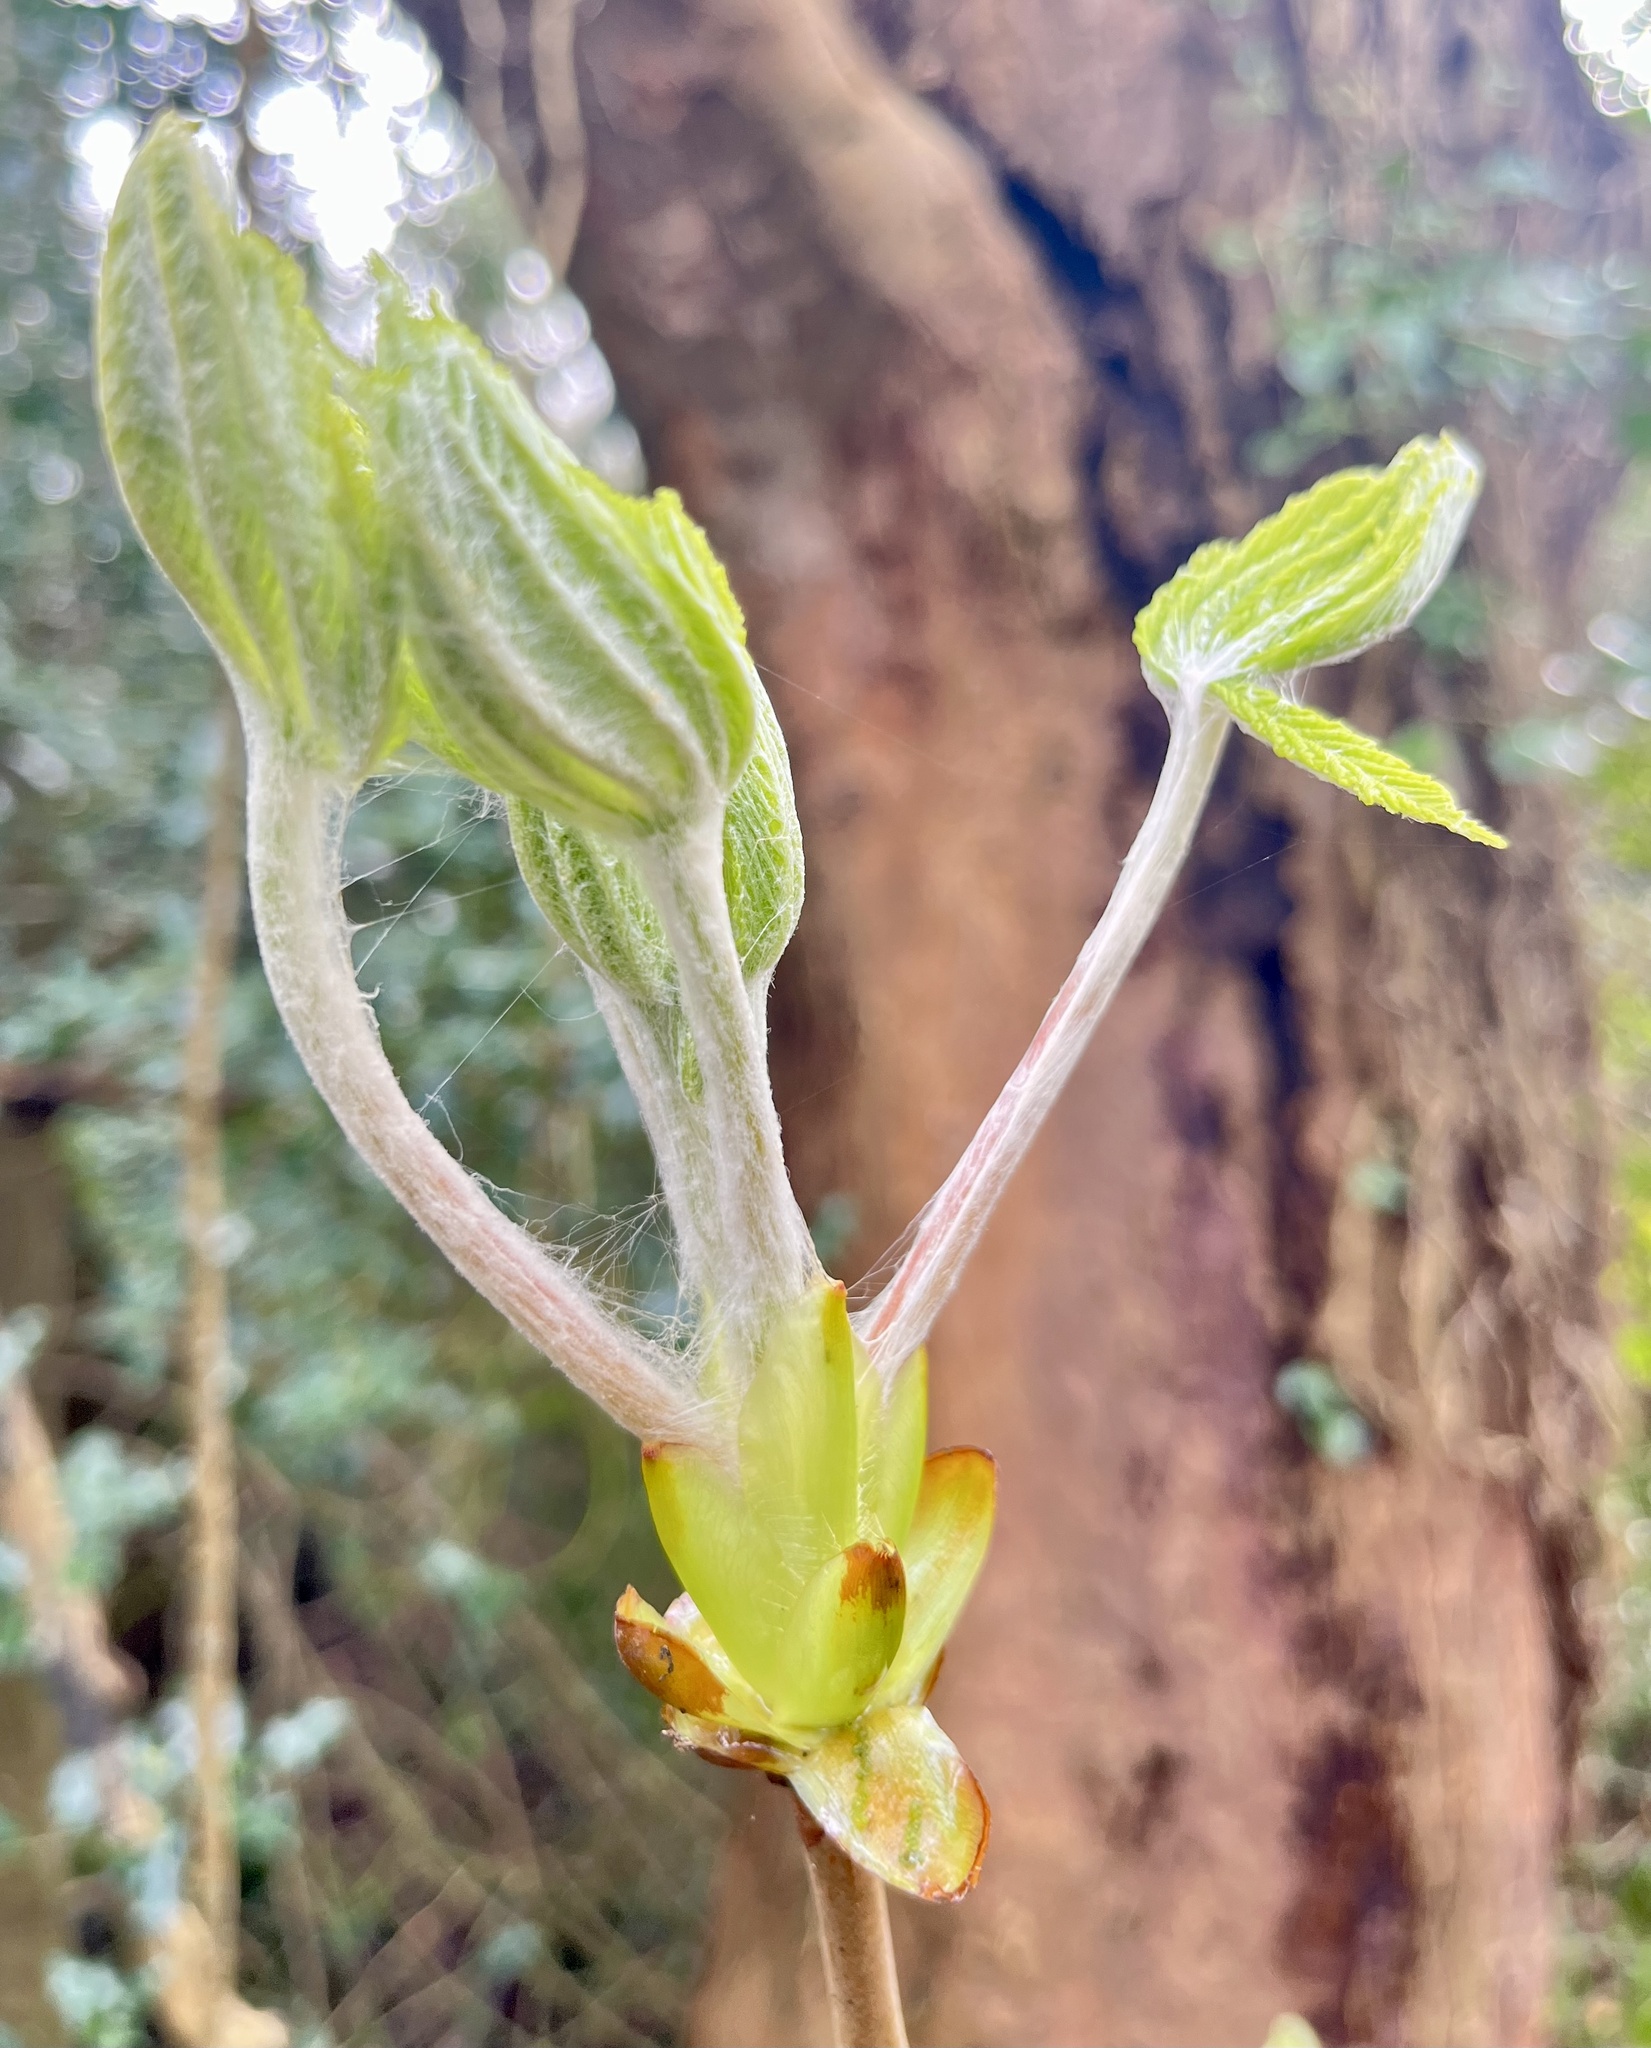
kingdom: Plantae
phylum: Tracheophyta
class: Magnoliopsida
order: Sapindales
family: Sapindaceae
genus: Aesculus
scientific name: Aesculus hippocastanum
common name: Horse-chestnut
